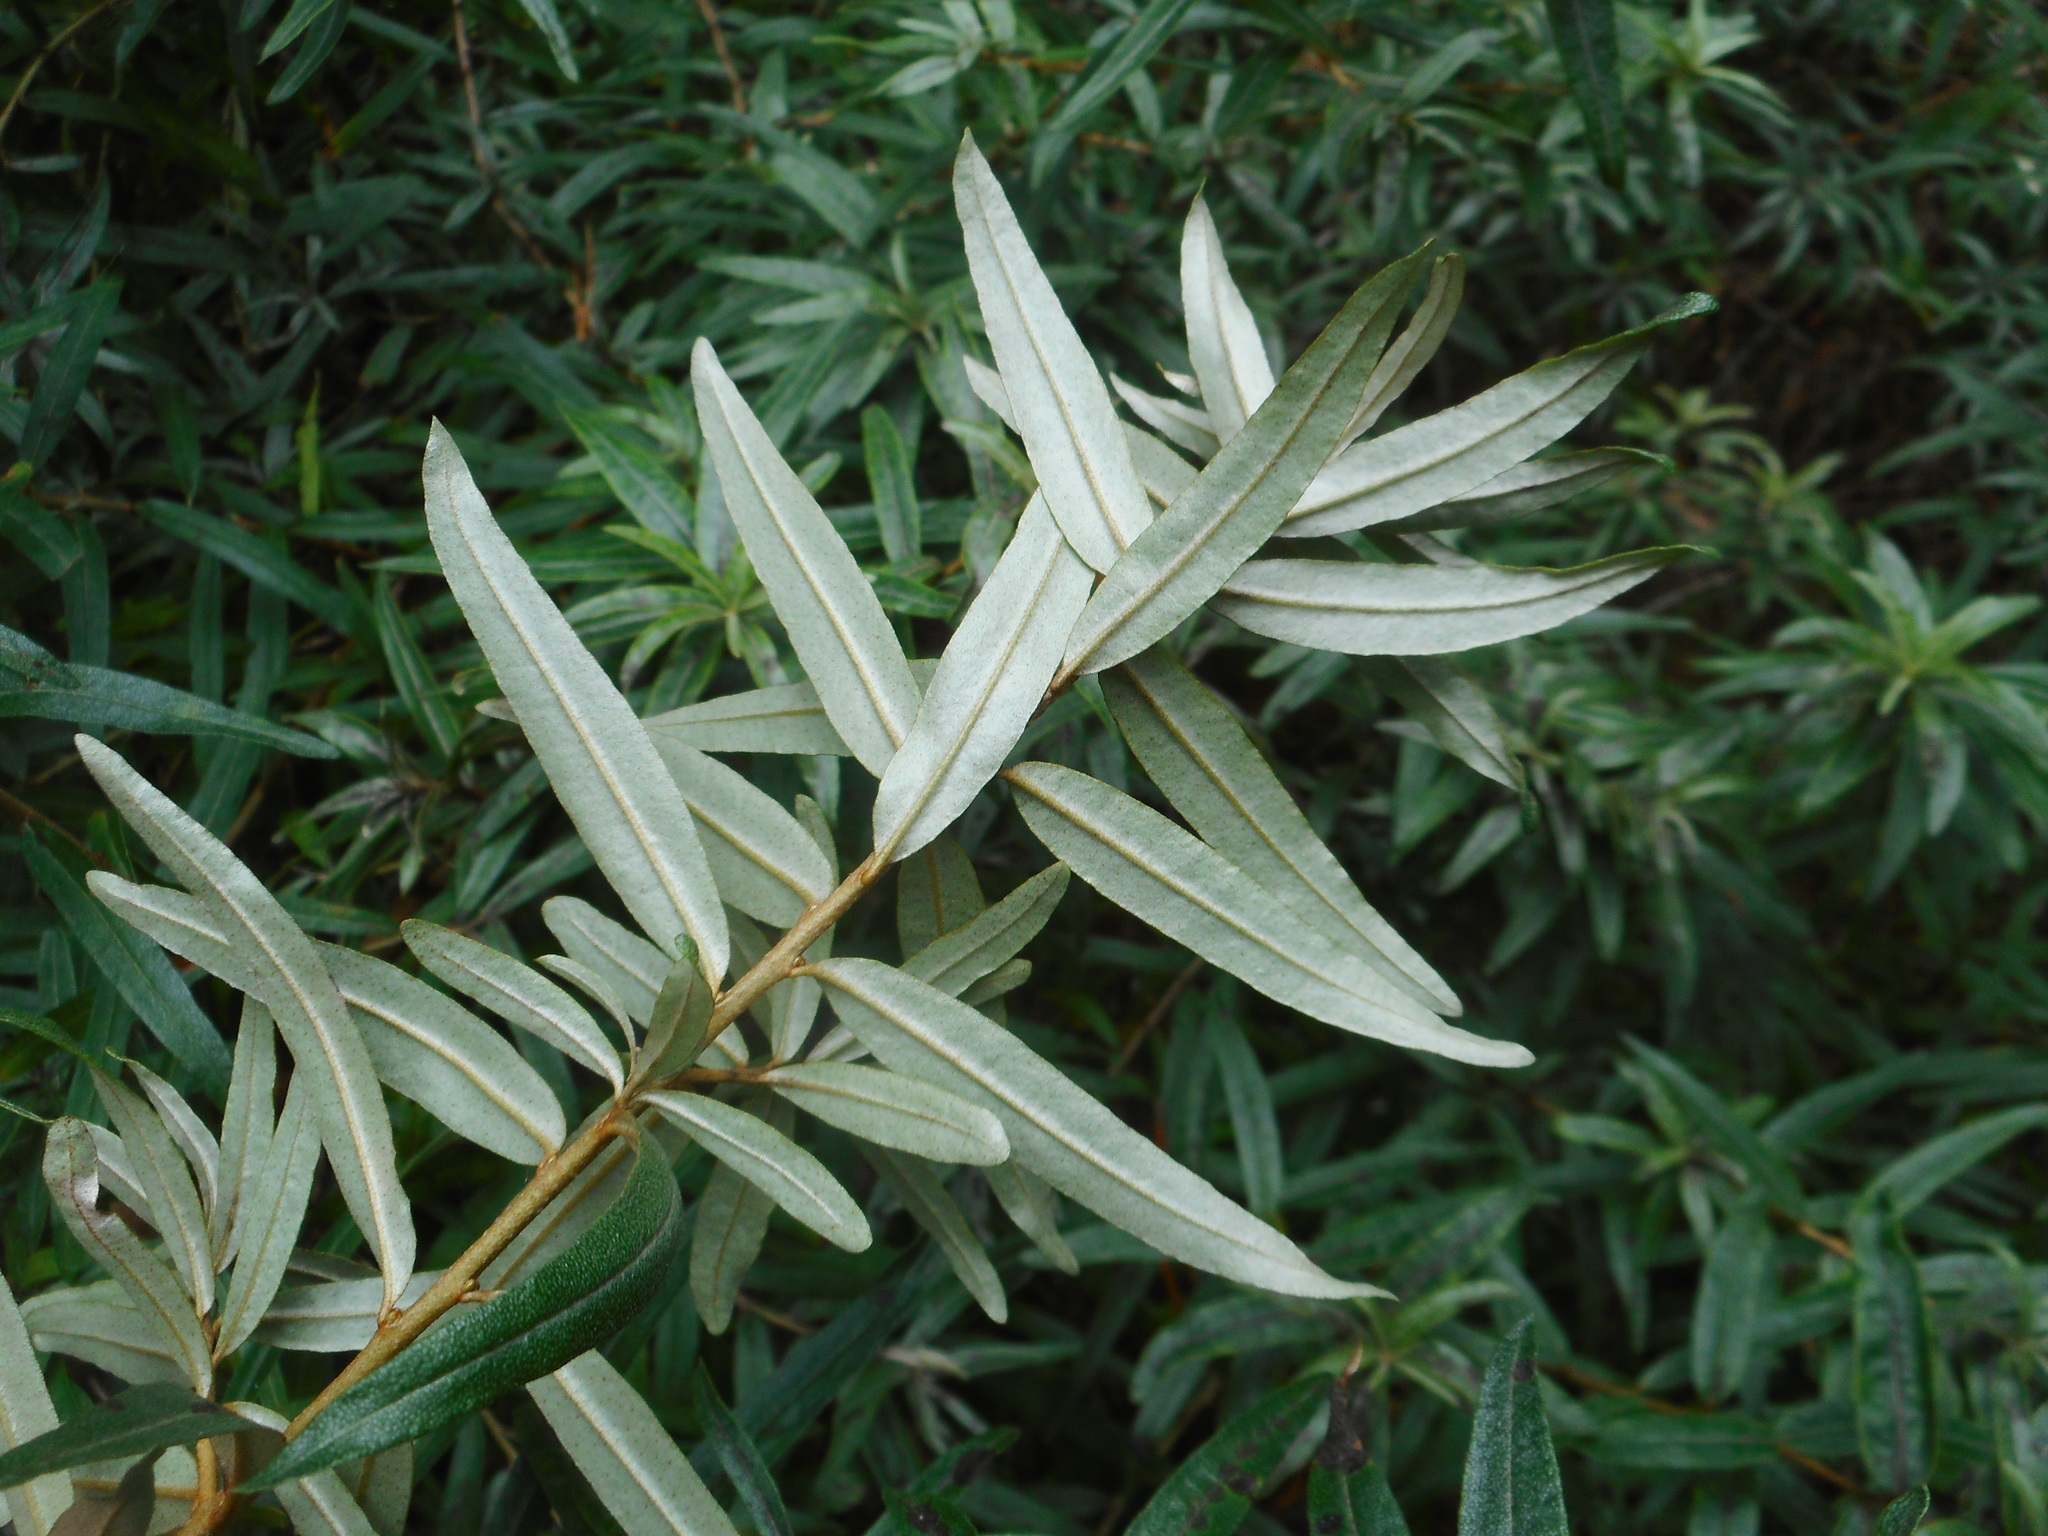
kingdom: Plantae
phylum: Tracheophyta
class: Magnoliopsida
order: Rosales
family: Elaeagnaceae
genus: Hippophae
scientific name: Hippophae rhamnoides
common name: Sea-buckthorn
